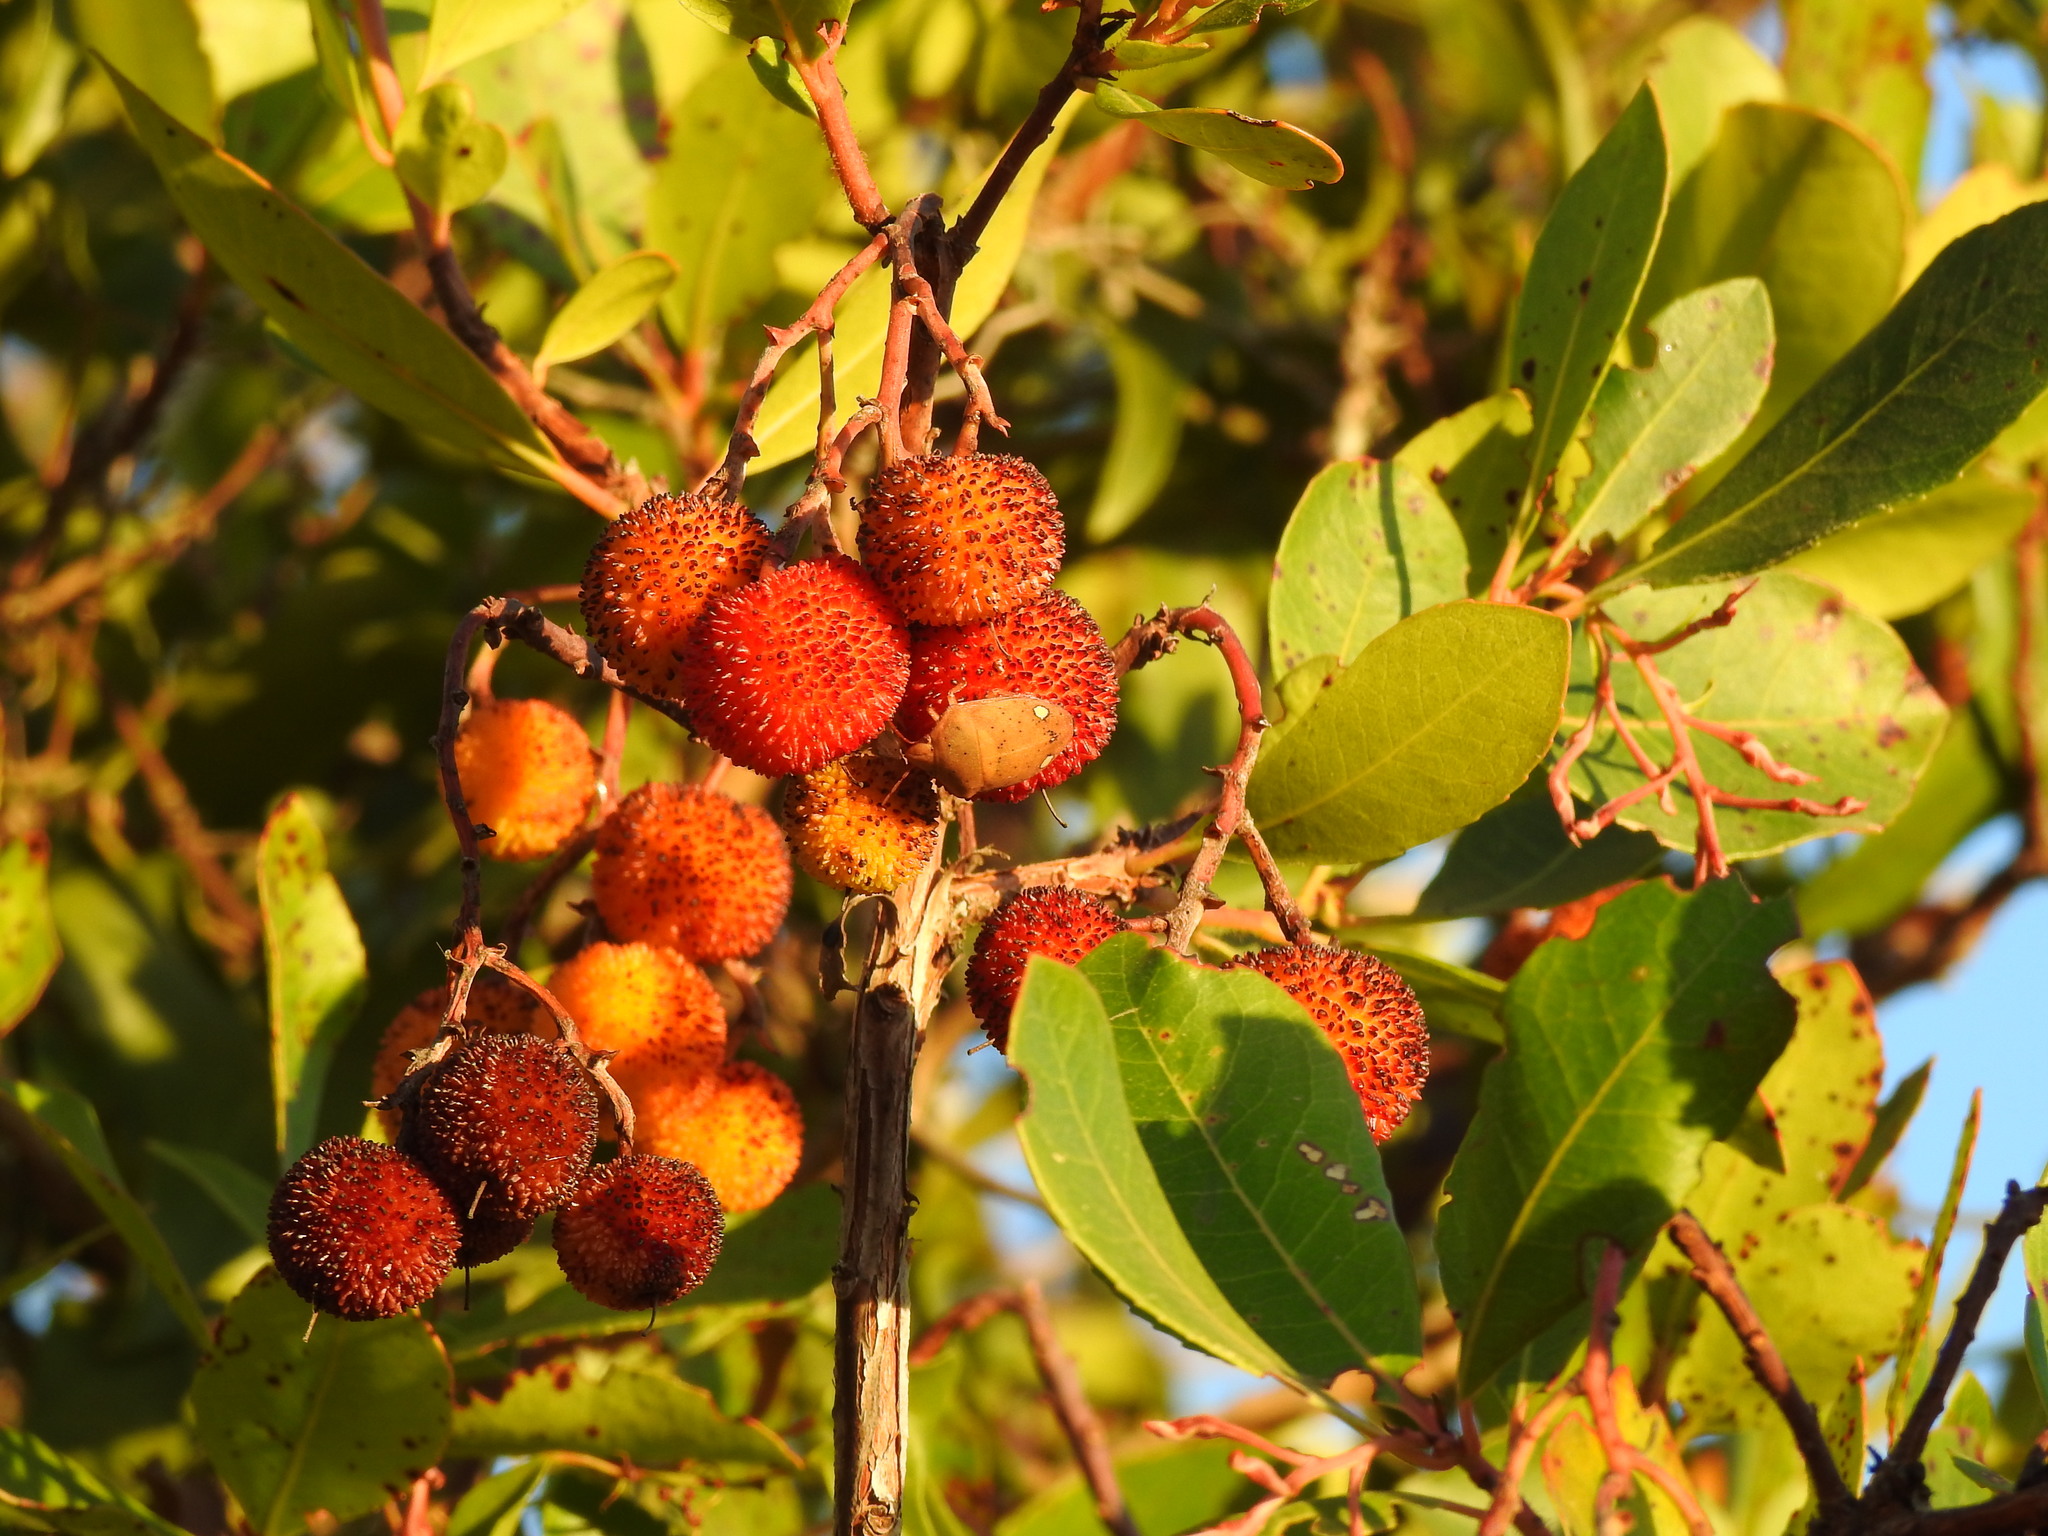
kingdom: Animalia
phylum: Arthropoda
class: Insecta
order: Hemiptera
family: Scutelleridae
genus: Solenosthedium
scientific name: Solenosthedium bilunatum
